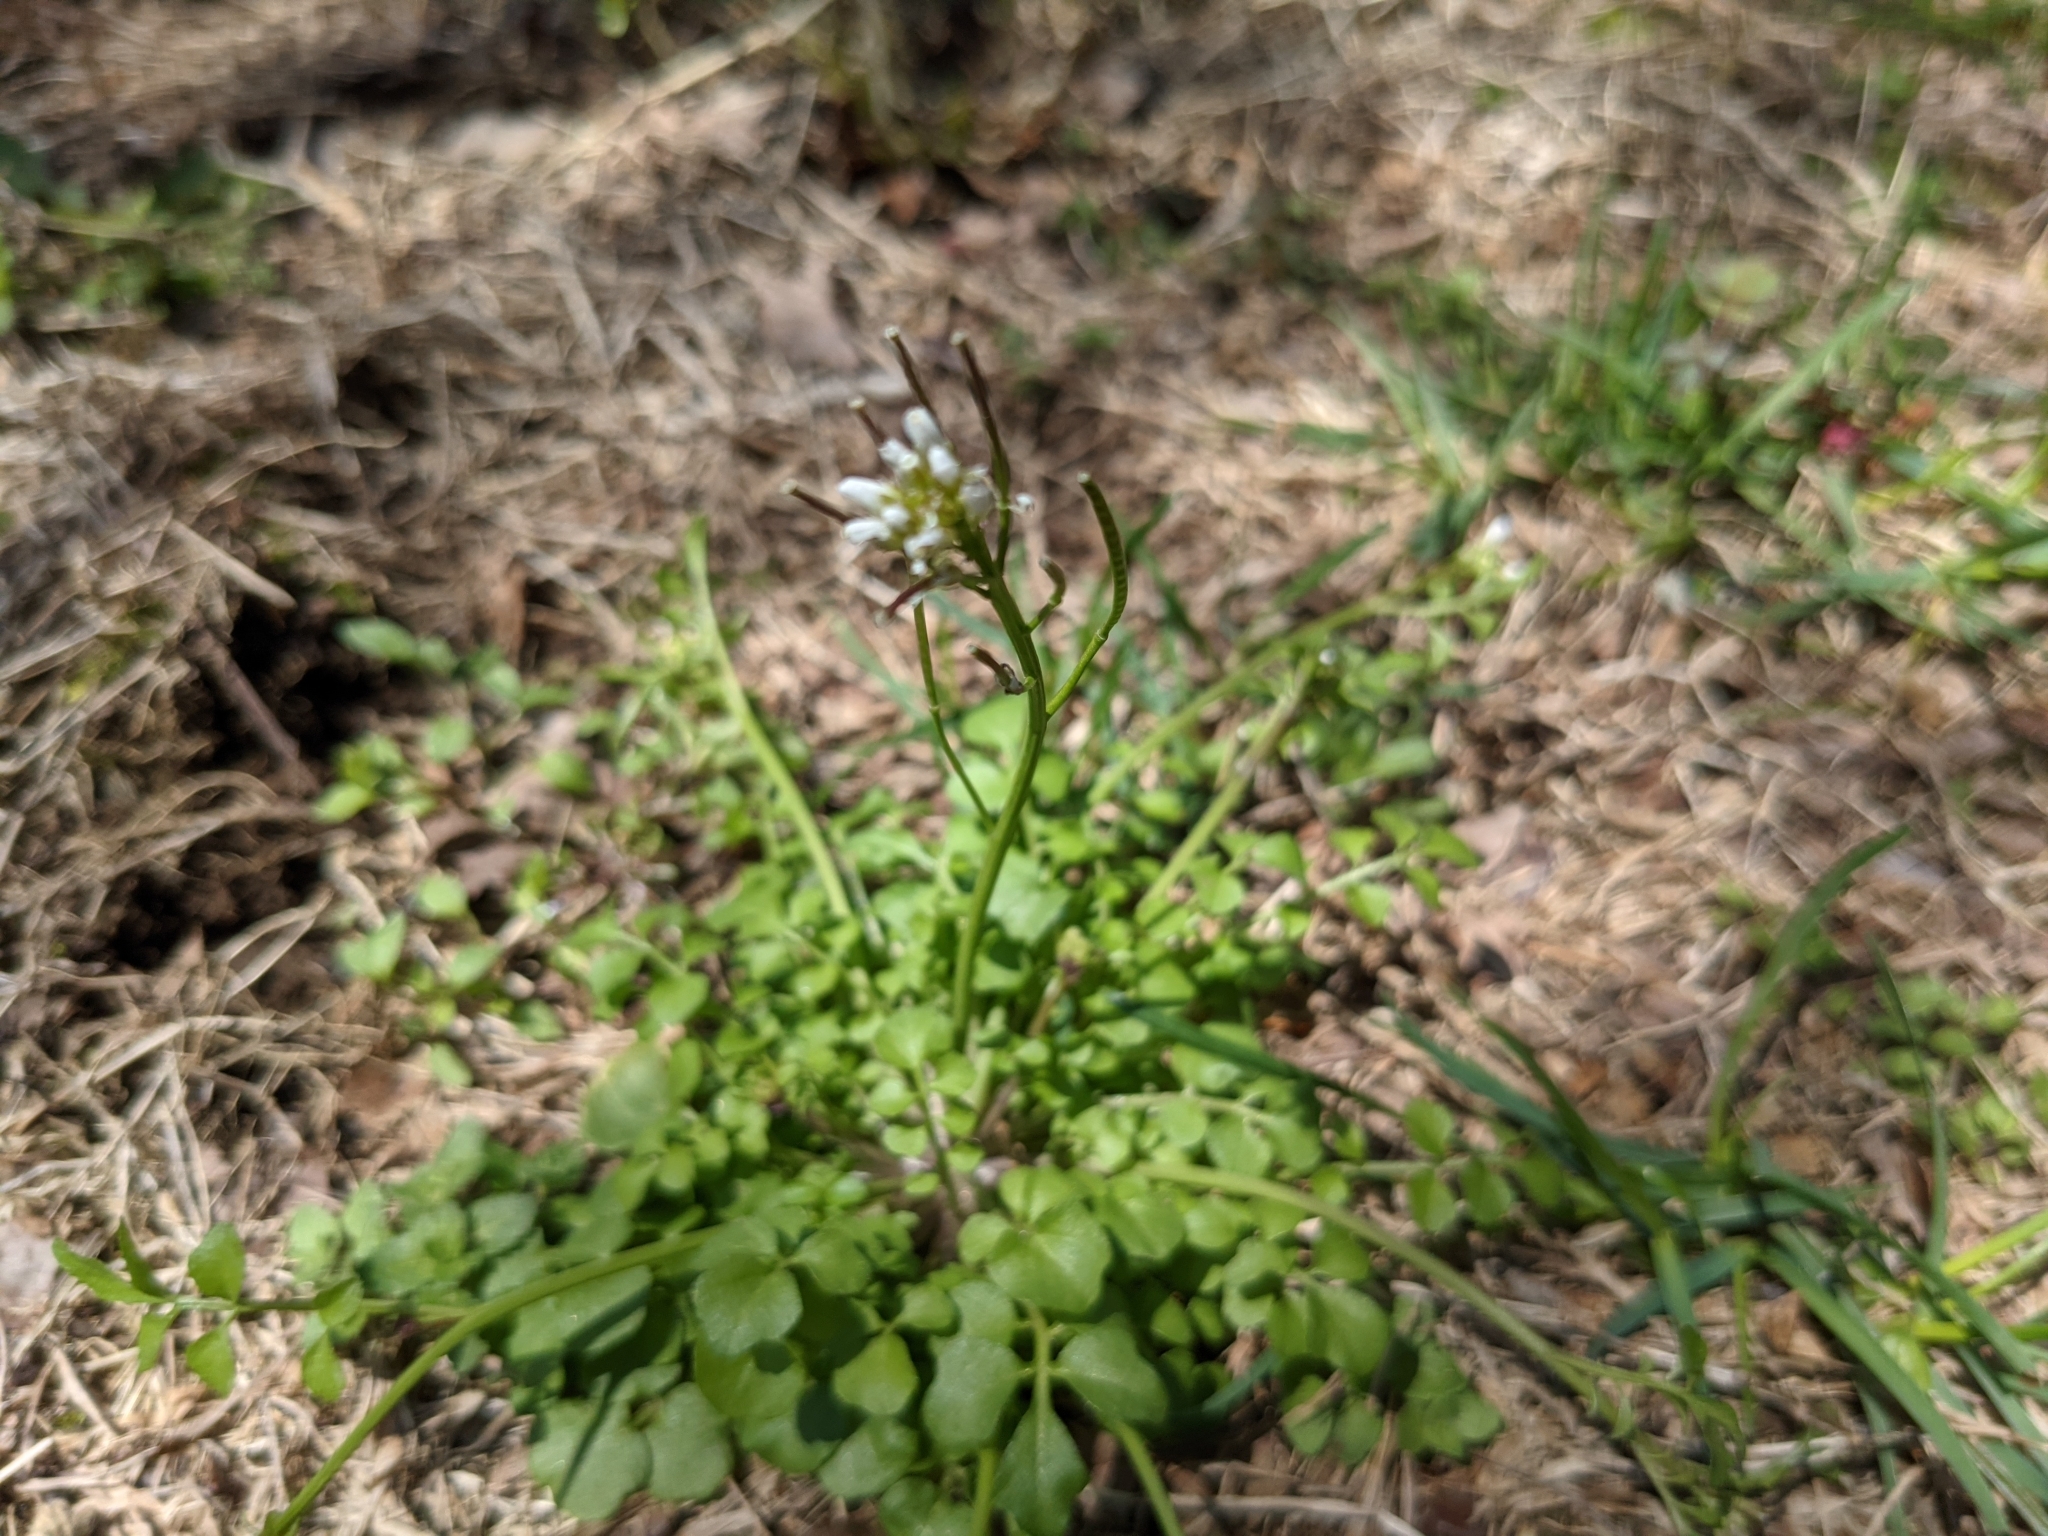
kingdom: Plantae
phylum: Tracheophyta
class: Magnoliopsida
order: Brassicales
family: Brassicaceae
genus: Cardamine
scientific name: Cardamine hirsuta
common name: Hairy bittercress
